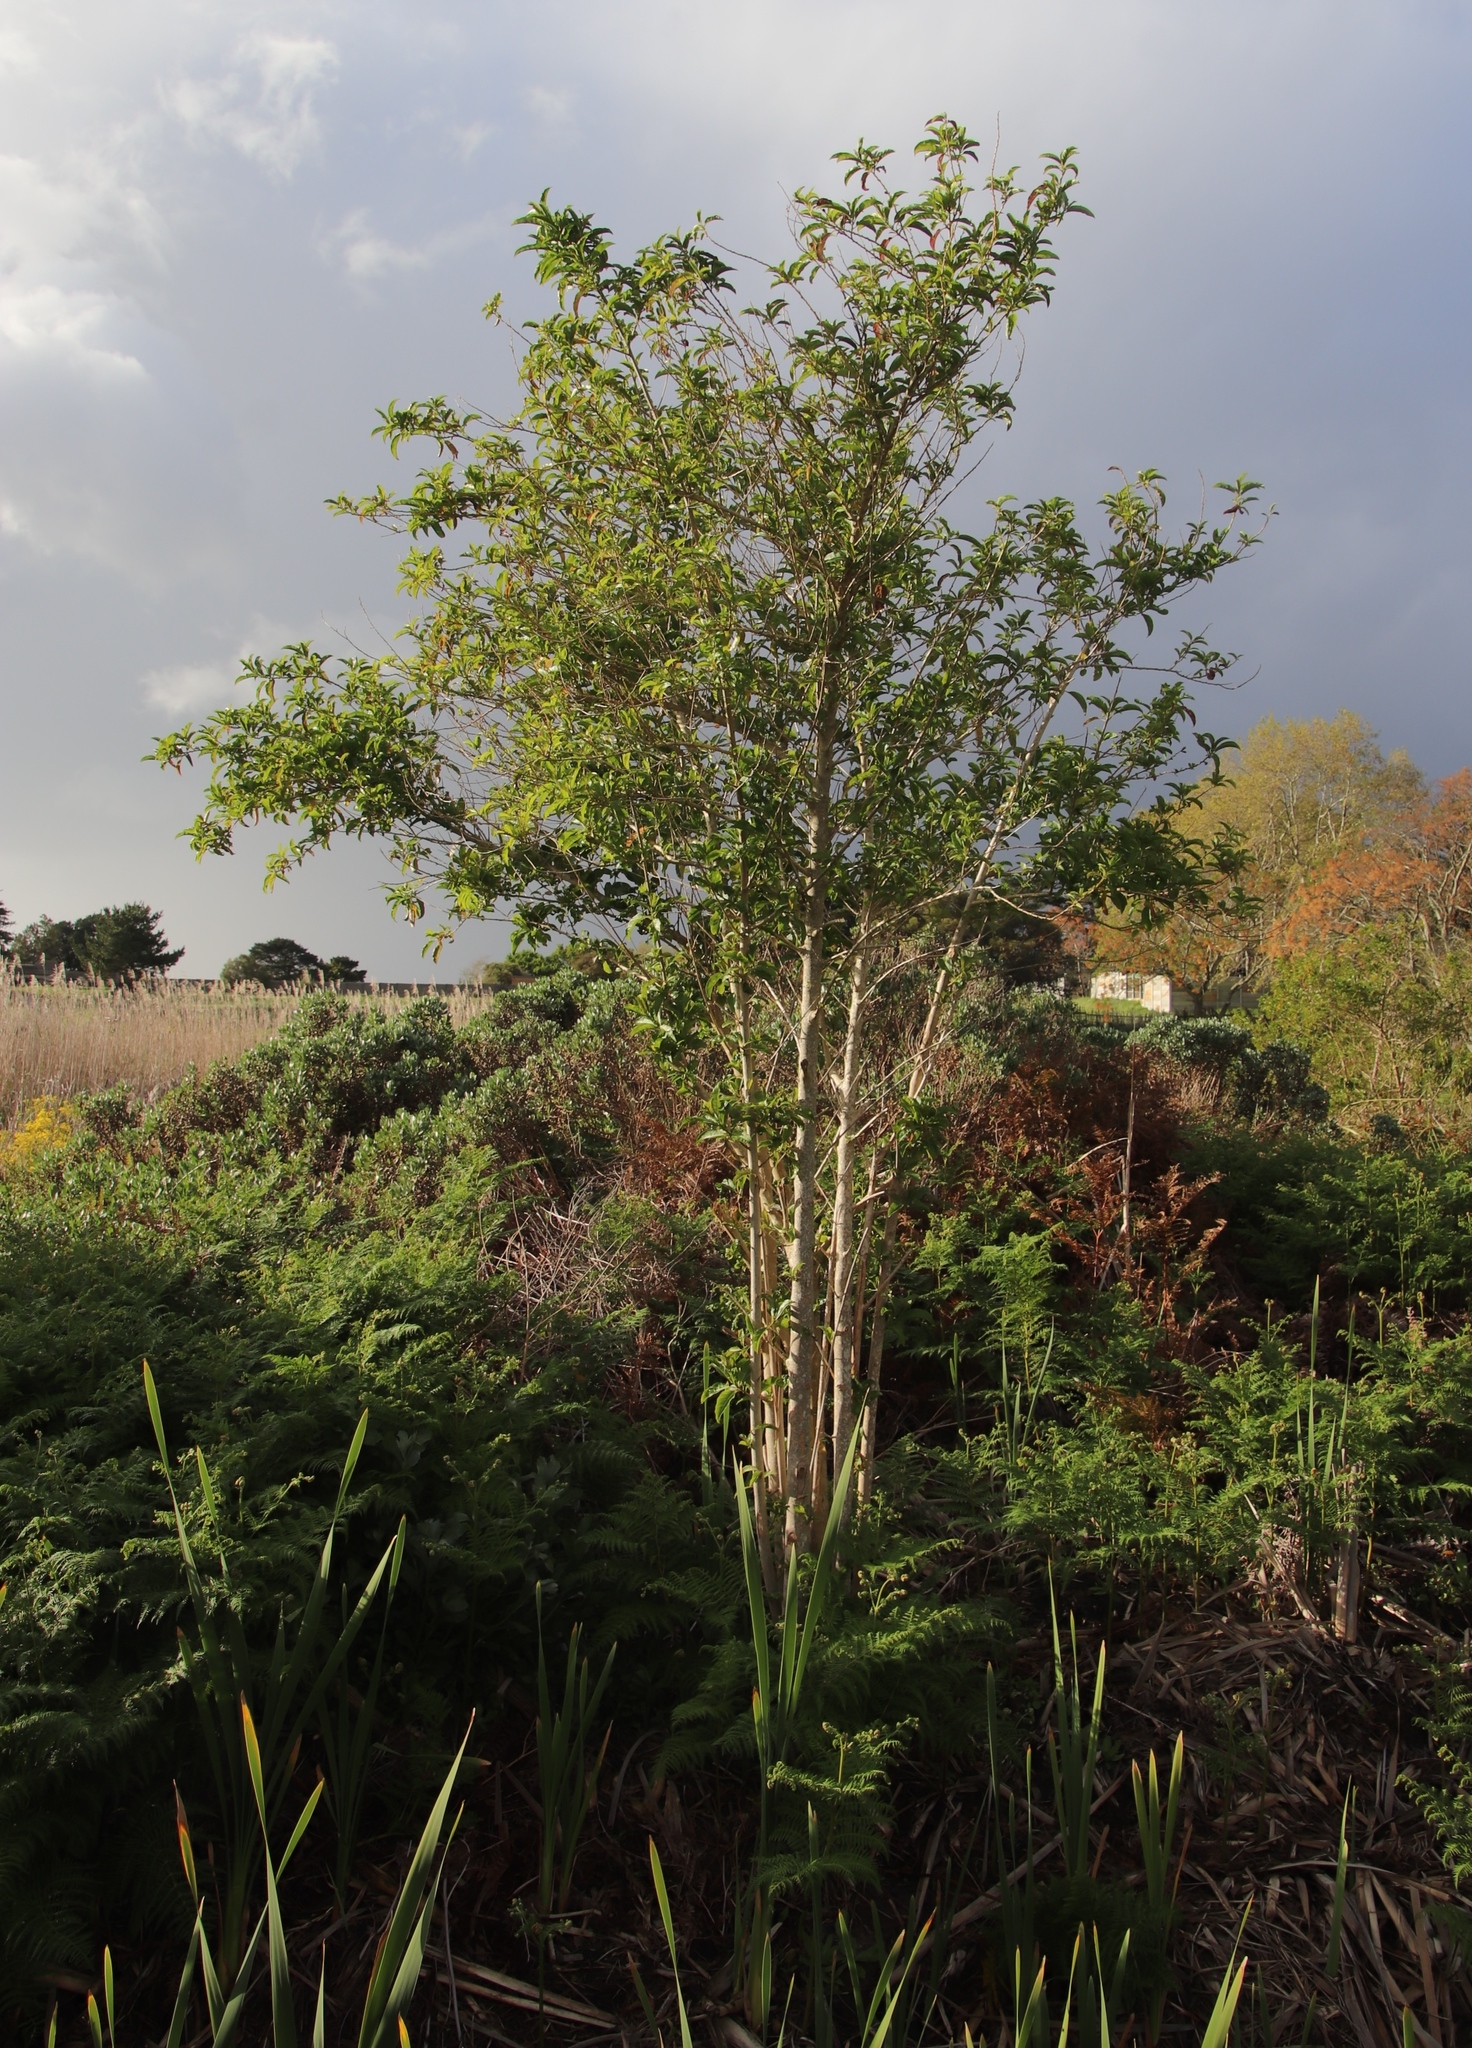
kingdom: Plantae
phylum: Tracheophyta
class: Magnoliopsida
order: Solanales
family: Solanaceae
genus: Cestrum
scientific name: Cestrum laevigatum
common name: Inkberry
